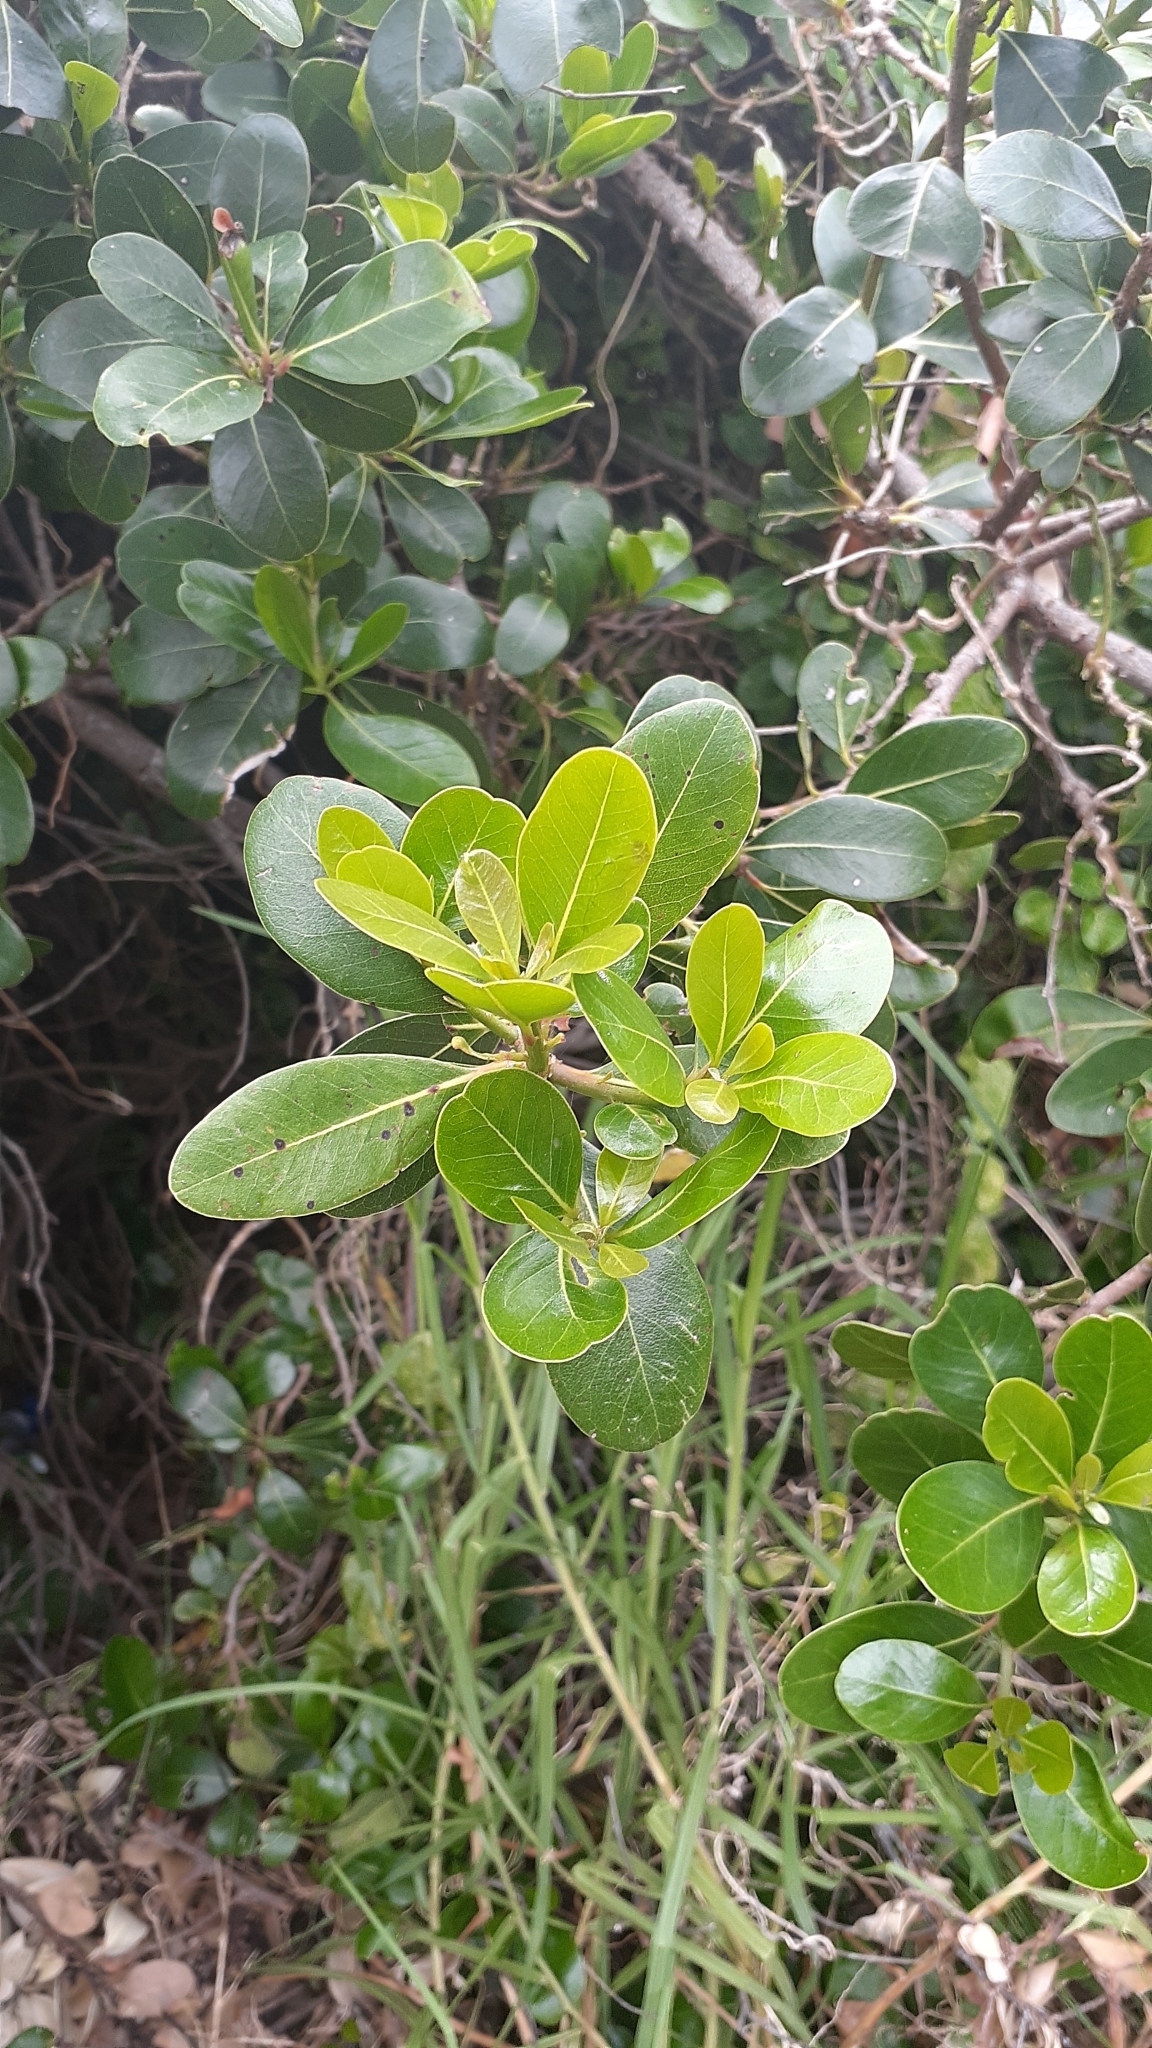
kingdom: Plantae
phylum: Tracheophyta
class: Magnoliopsida
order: Ericales
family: Sapotaceae
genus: Sideroxylon
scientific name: Sideroxylon inerme
